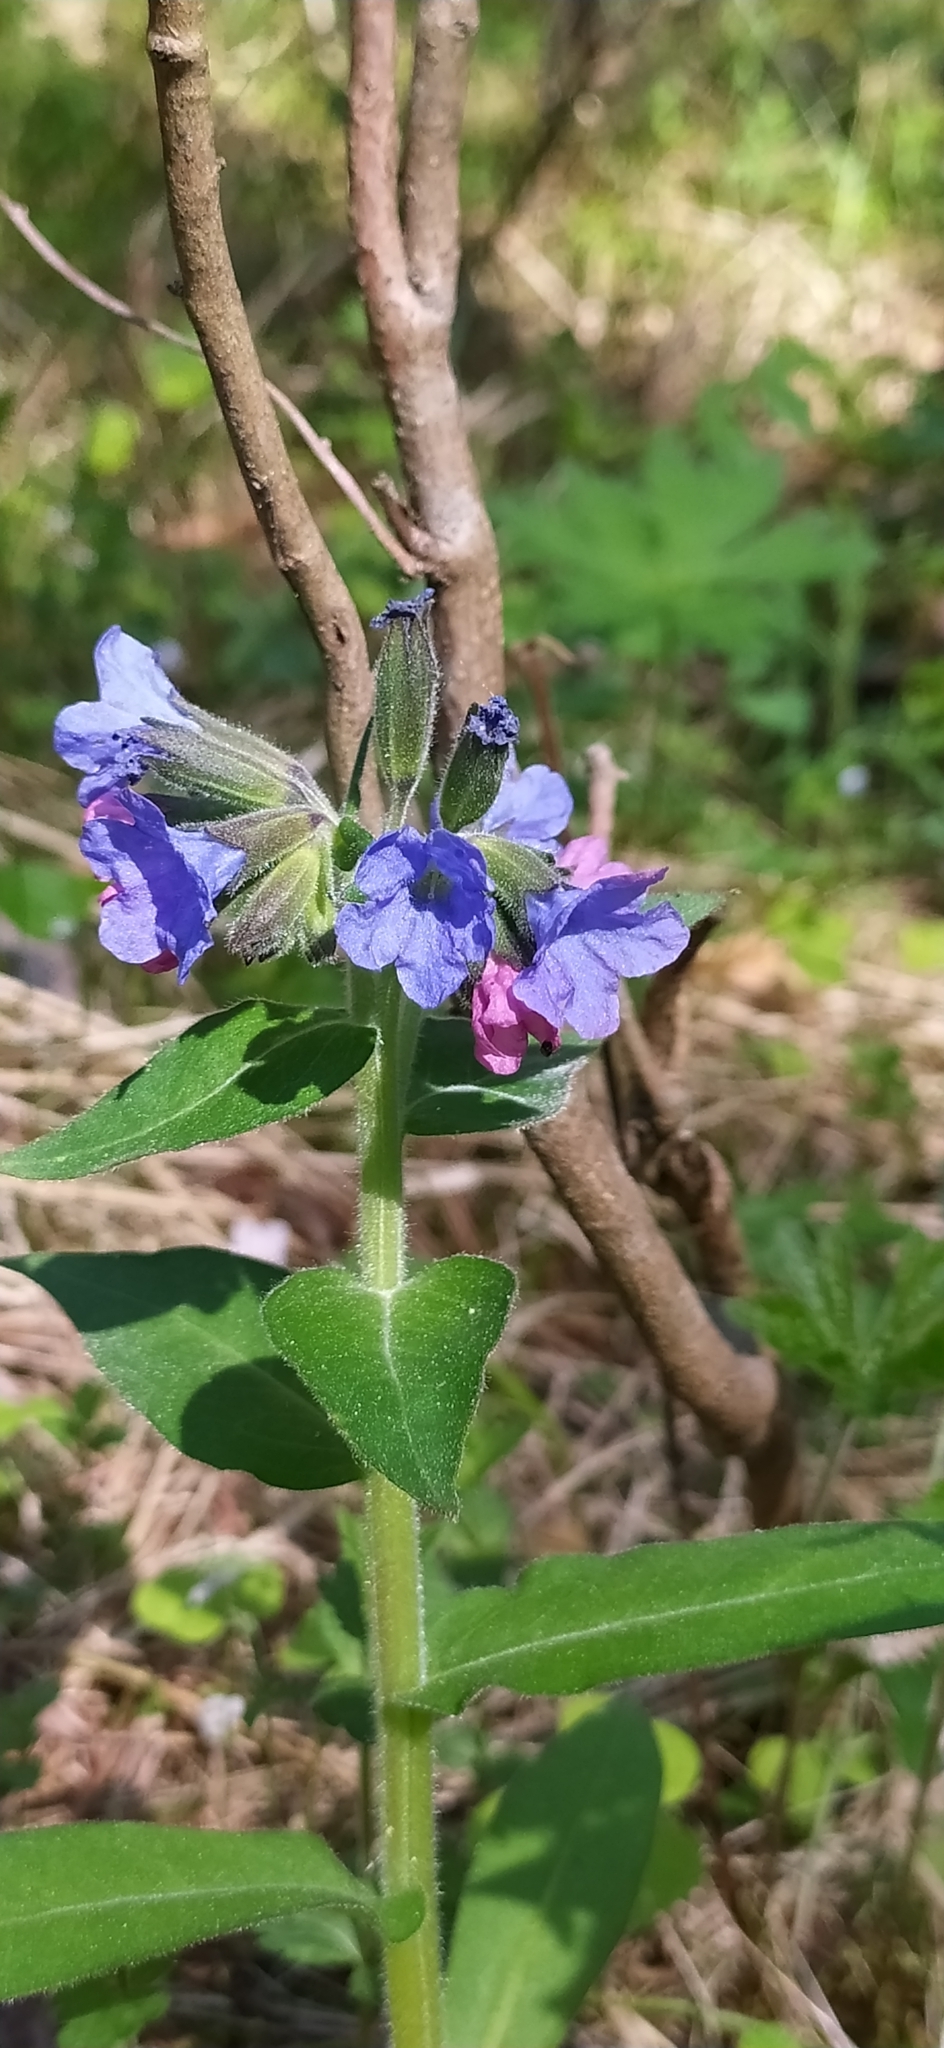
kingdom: Plantae
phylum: Tracheophyta
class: Magnoliopsida
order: Boraginales
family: Boraginaceae
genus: Pulmonaria
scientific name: Pulmonaria mollis
